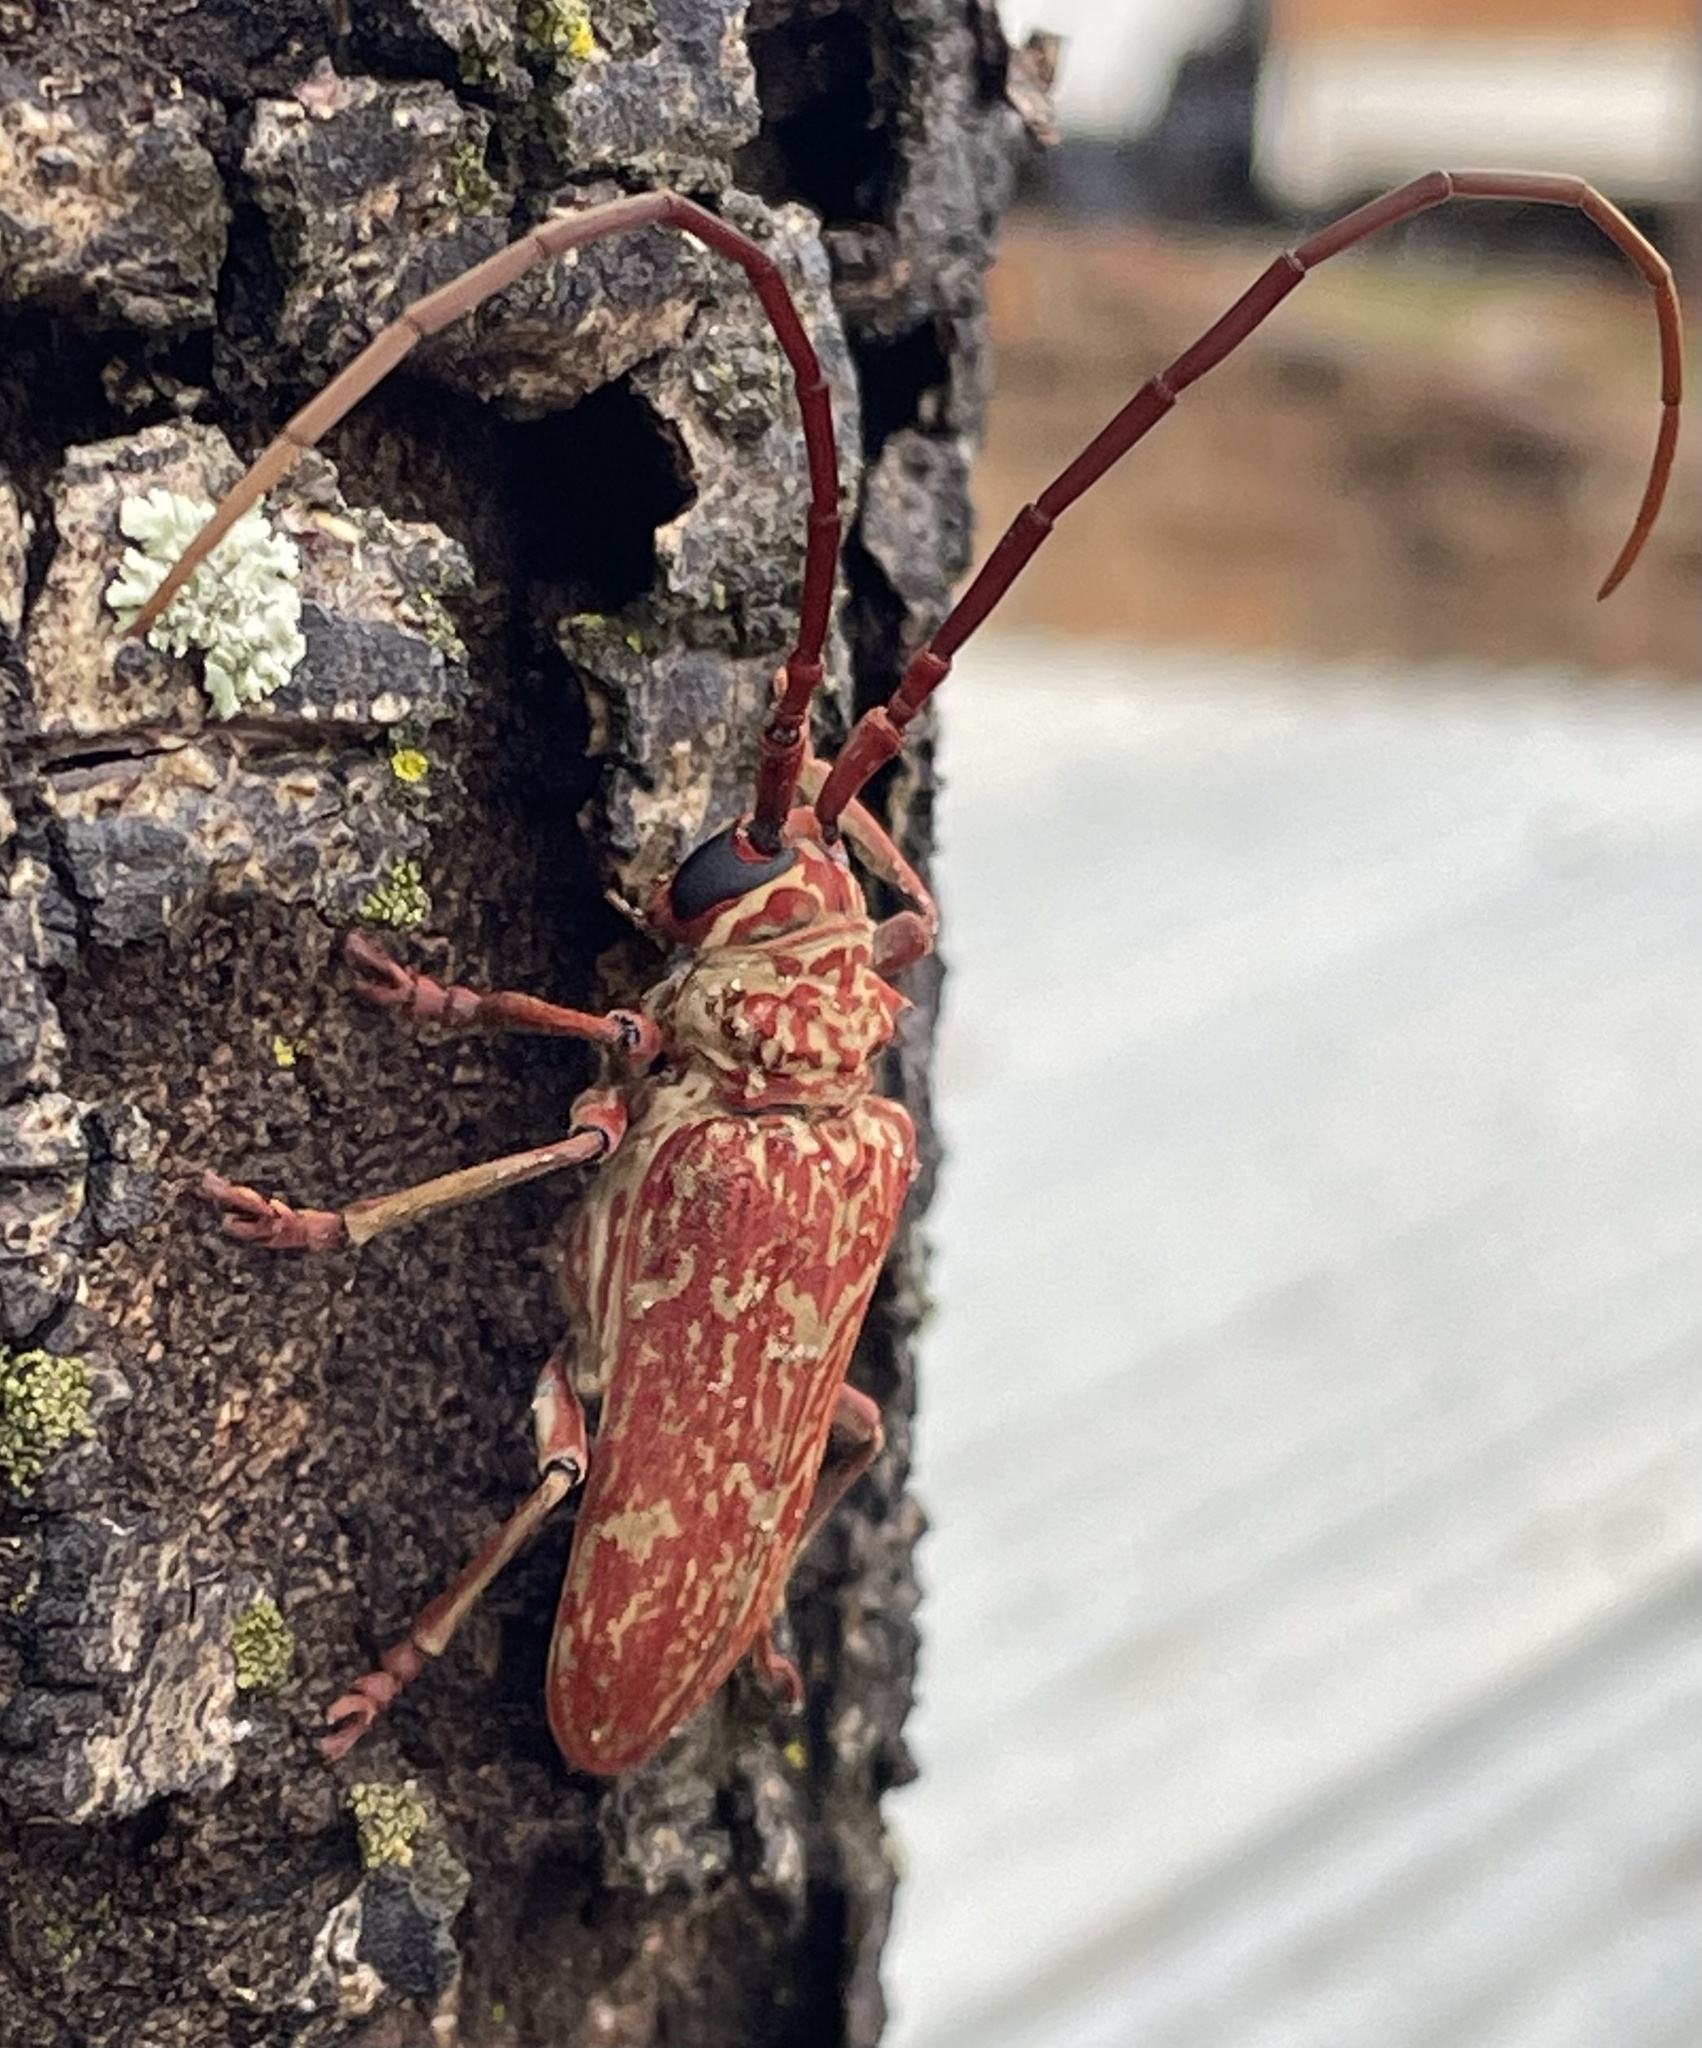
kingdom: Animalia
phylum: Arthropoda
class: Insecta
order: Coleoptera
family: Cerambycidae
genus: Brachytritus
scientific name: Brachytritus hieroglyphicus
